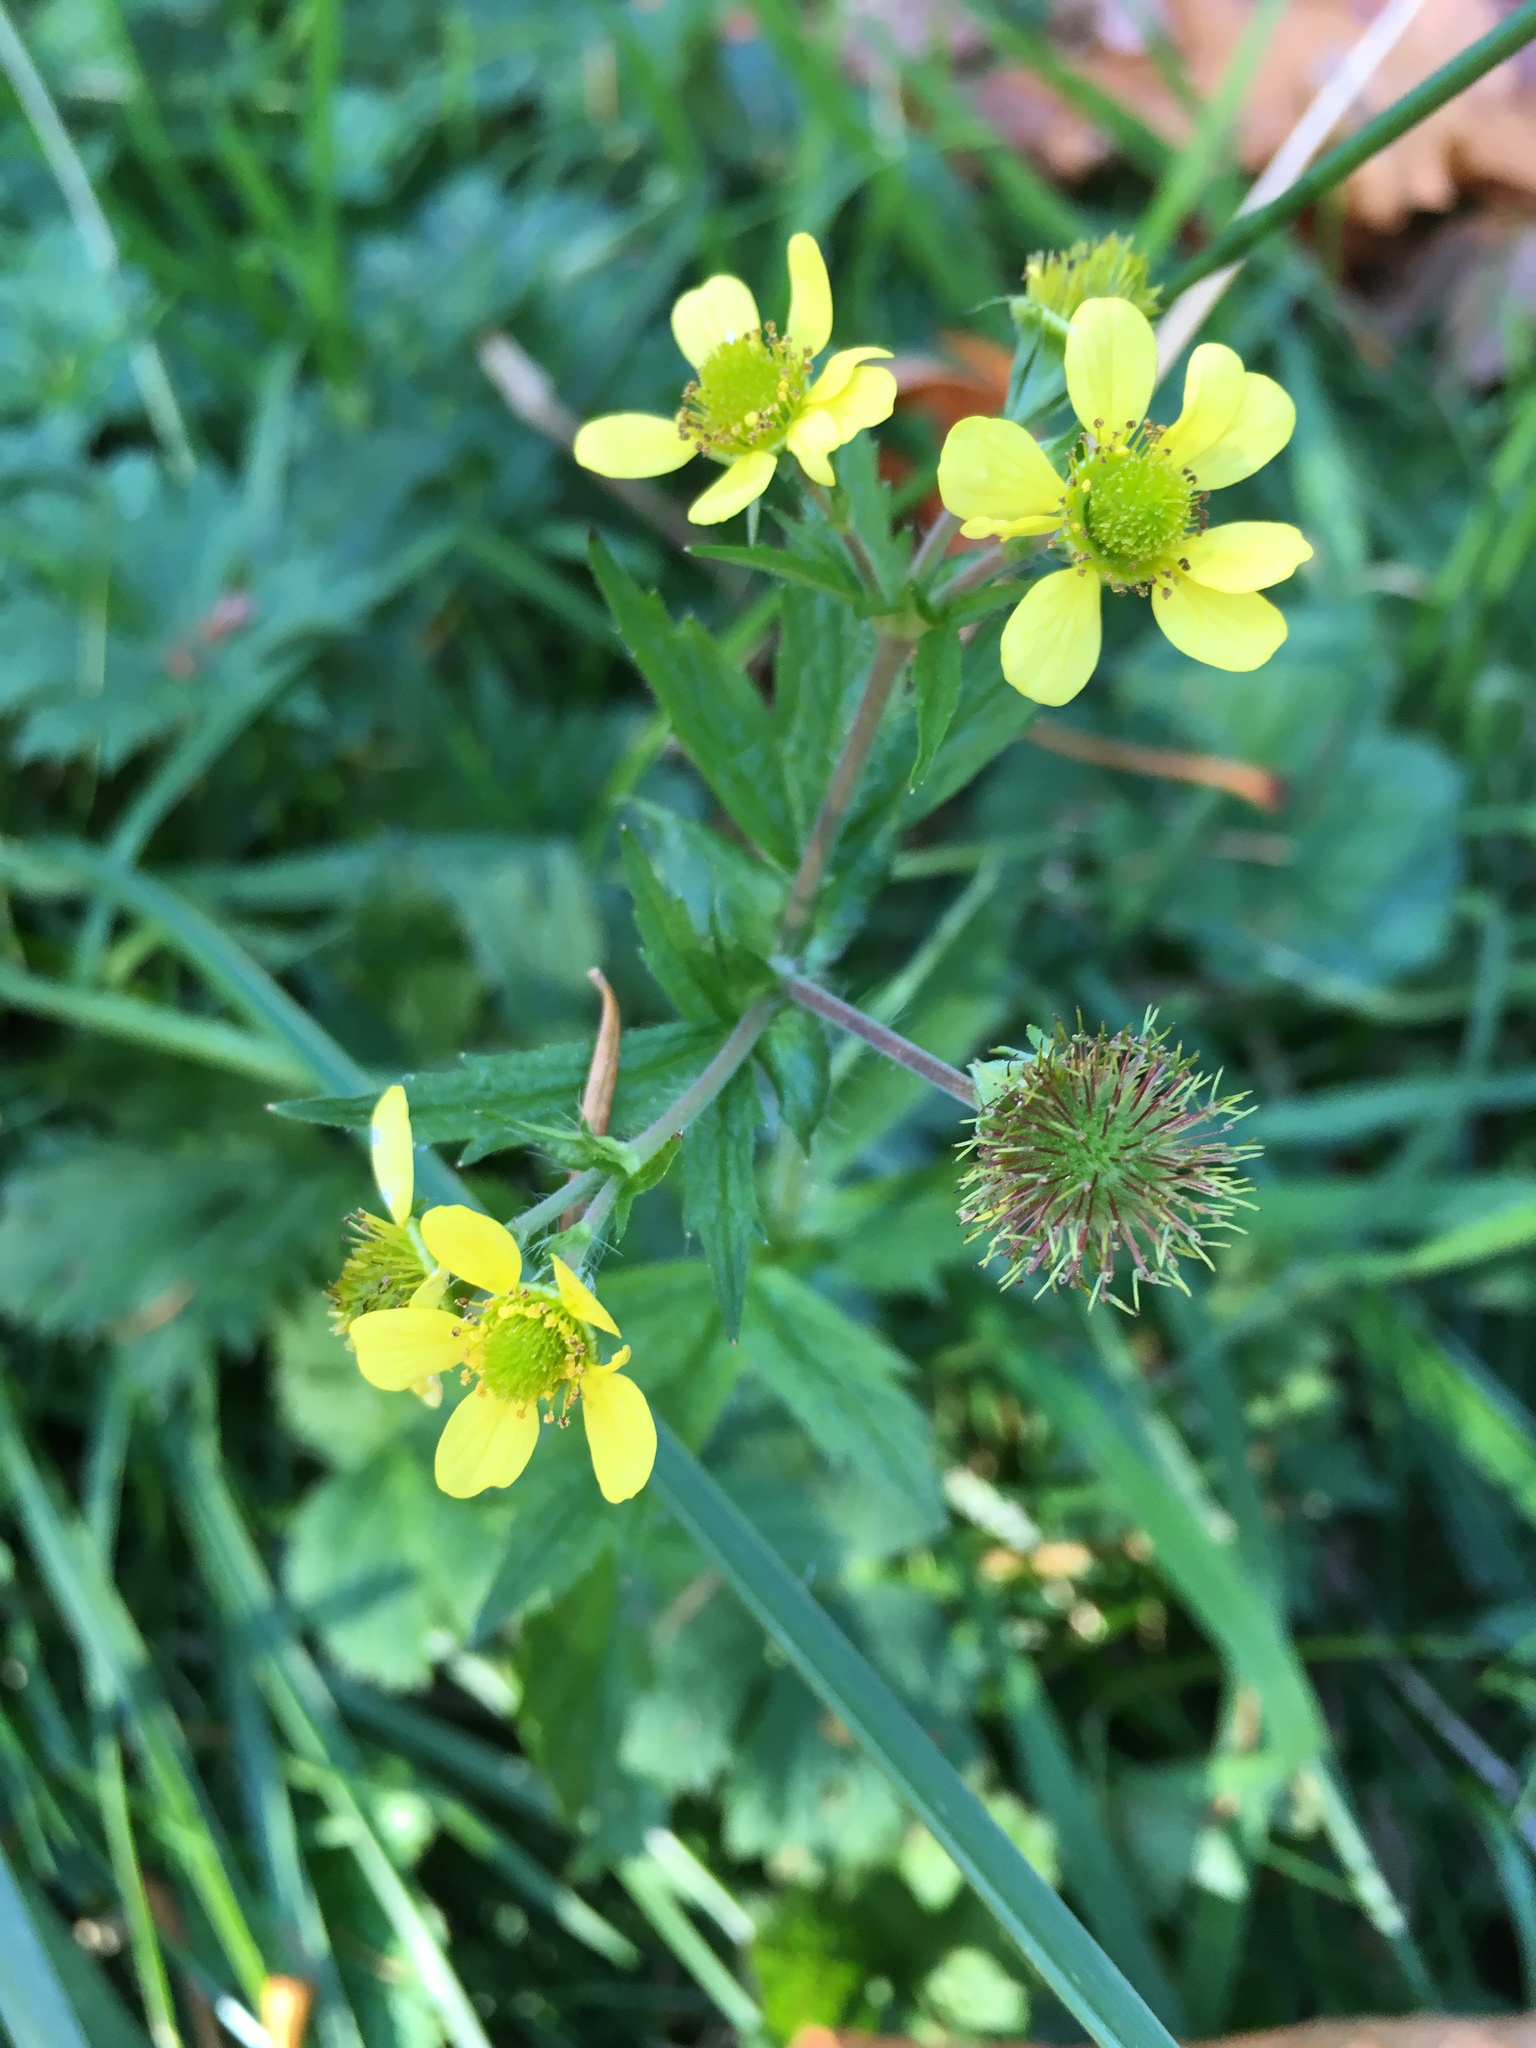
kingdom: Plantae
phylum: Tracheophyta
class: Magnoliopsida
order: Rosales
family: Rosaceae
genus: Geum
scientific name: Geum macrophyllum
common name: Large-leaved avens
